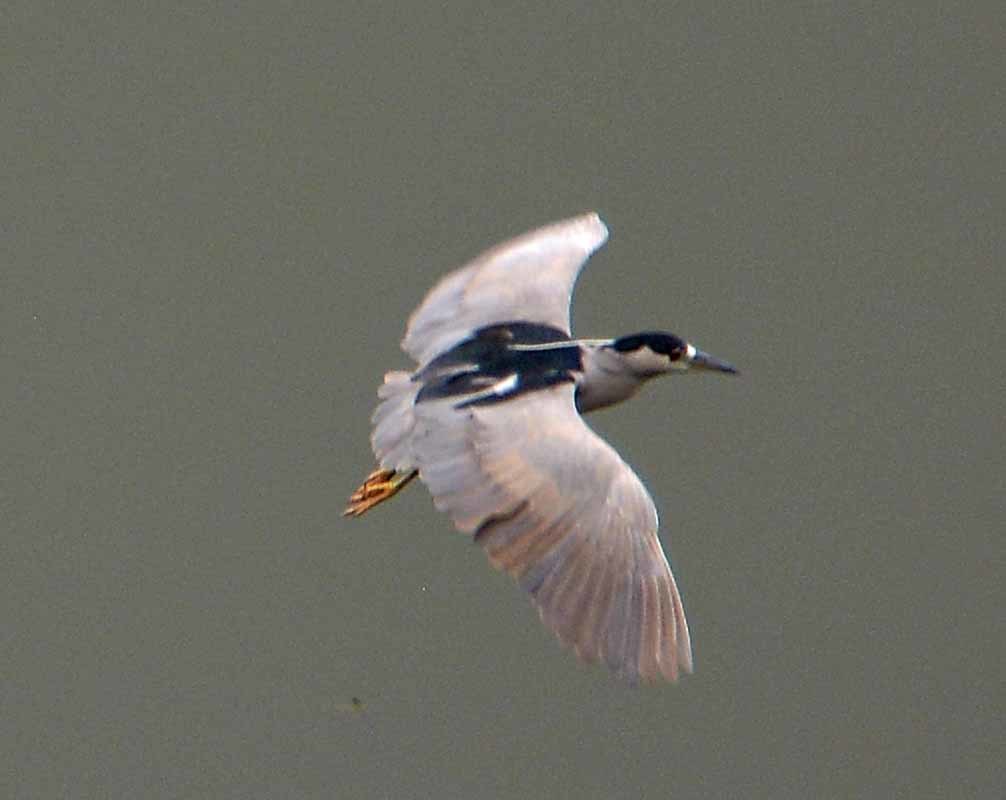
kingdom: Animalia
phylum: Chordata
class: Aves
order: Pelecaniformes
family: Ardeidae
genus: Nycticorax
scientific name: Nycticorax nycticorax
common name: Black-crowned night heron
